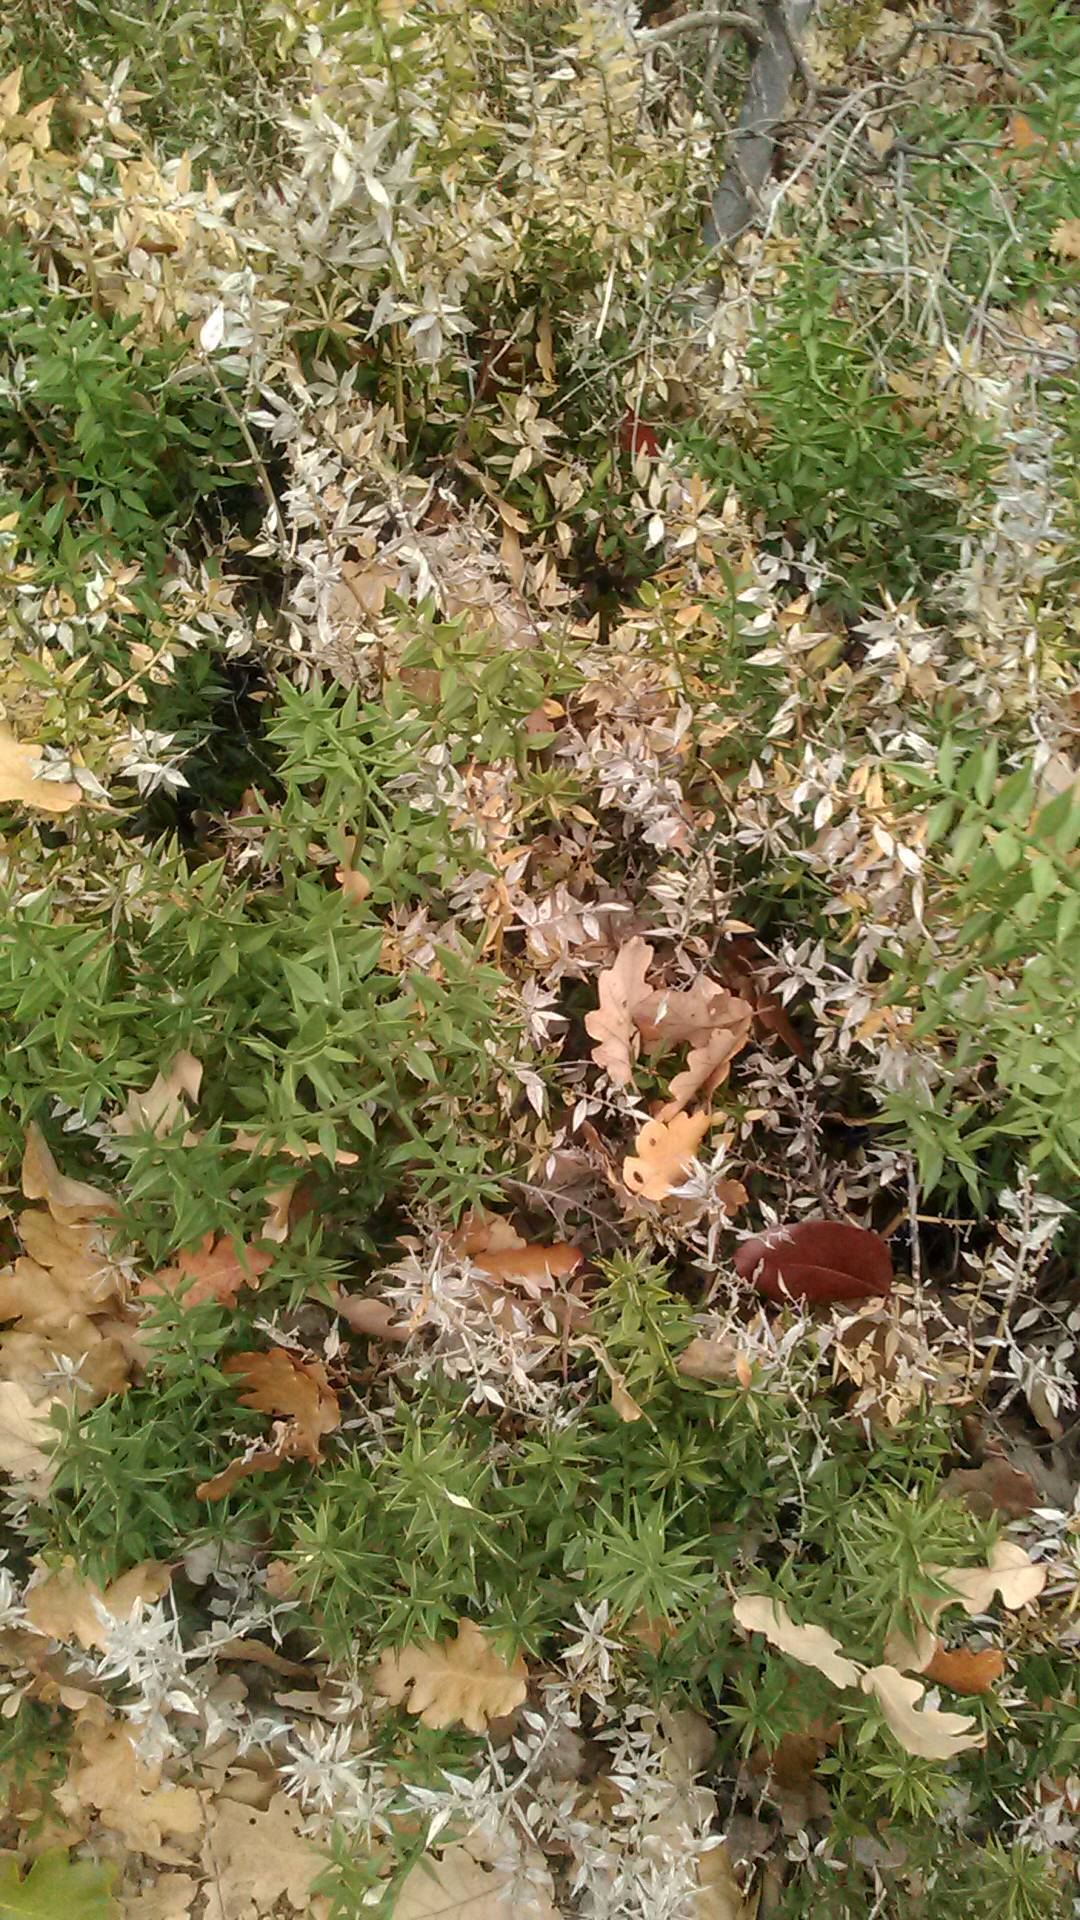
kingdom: Plantae
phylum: Tracheophyta
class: Liliopsida
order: Asparagales
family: Asparagaceae
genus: Ruscus
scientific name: Ruscus aculeatus
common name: Butcher's-broom
